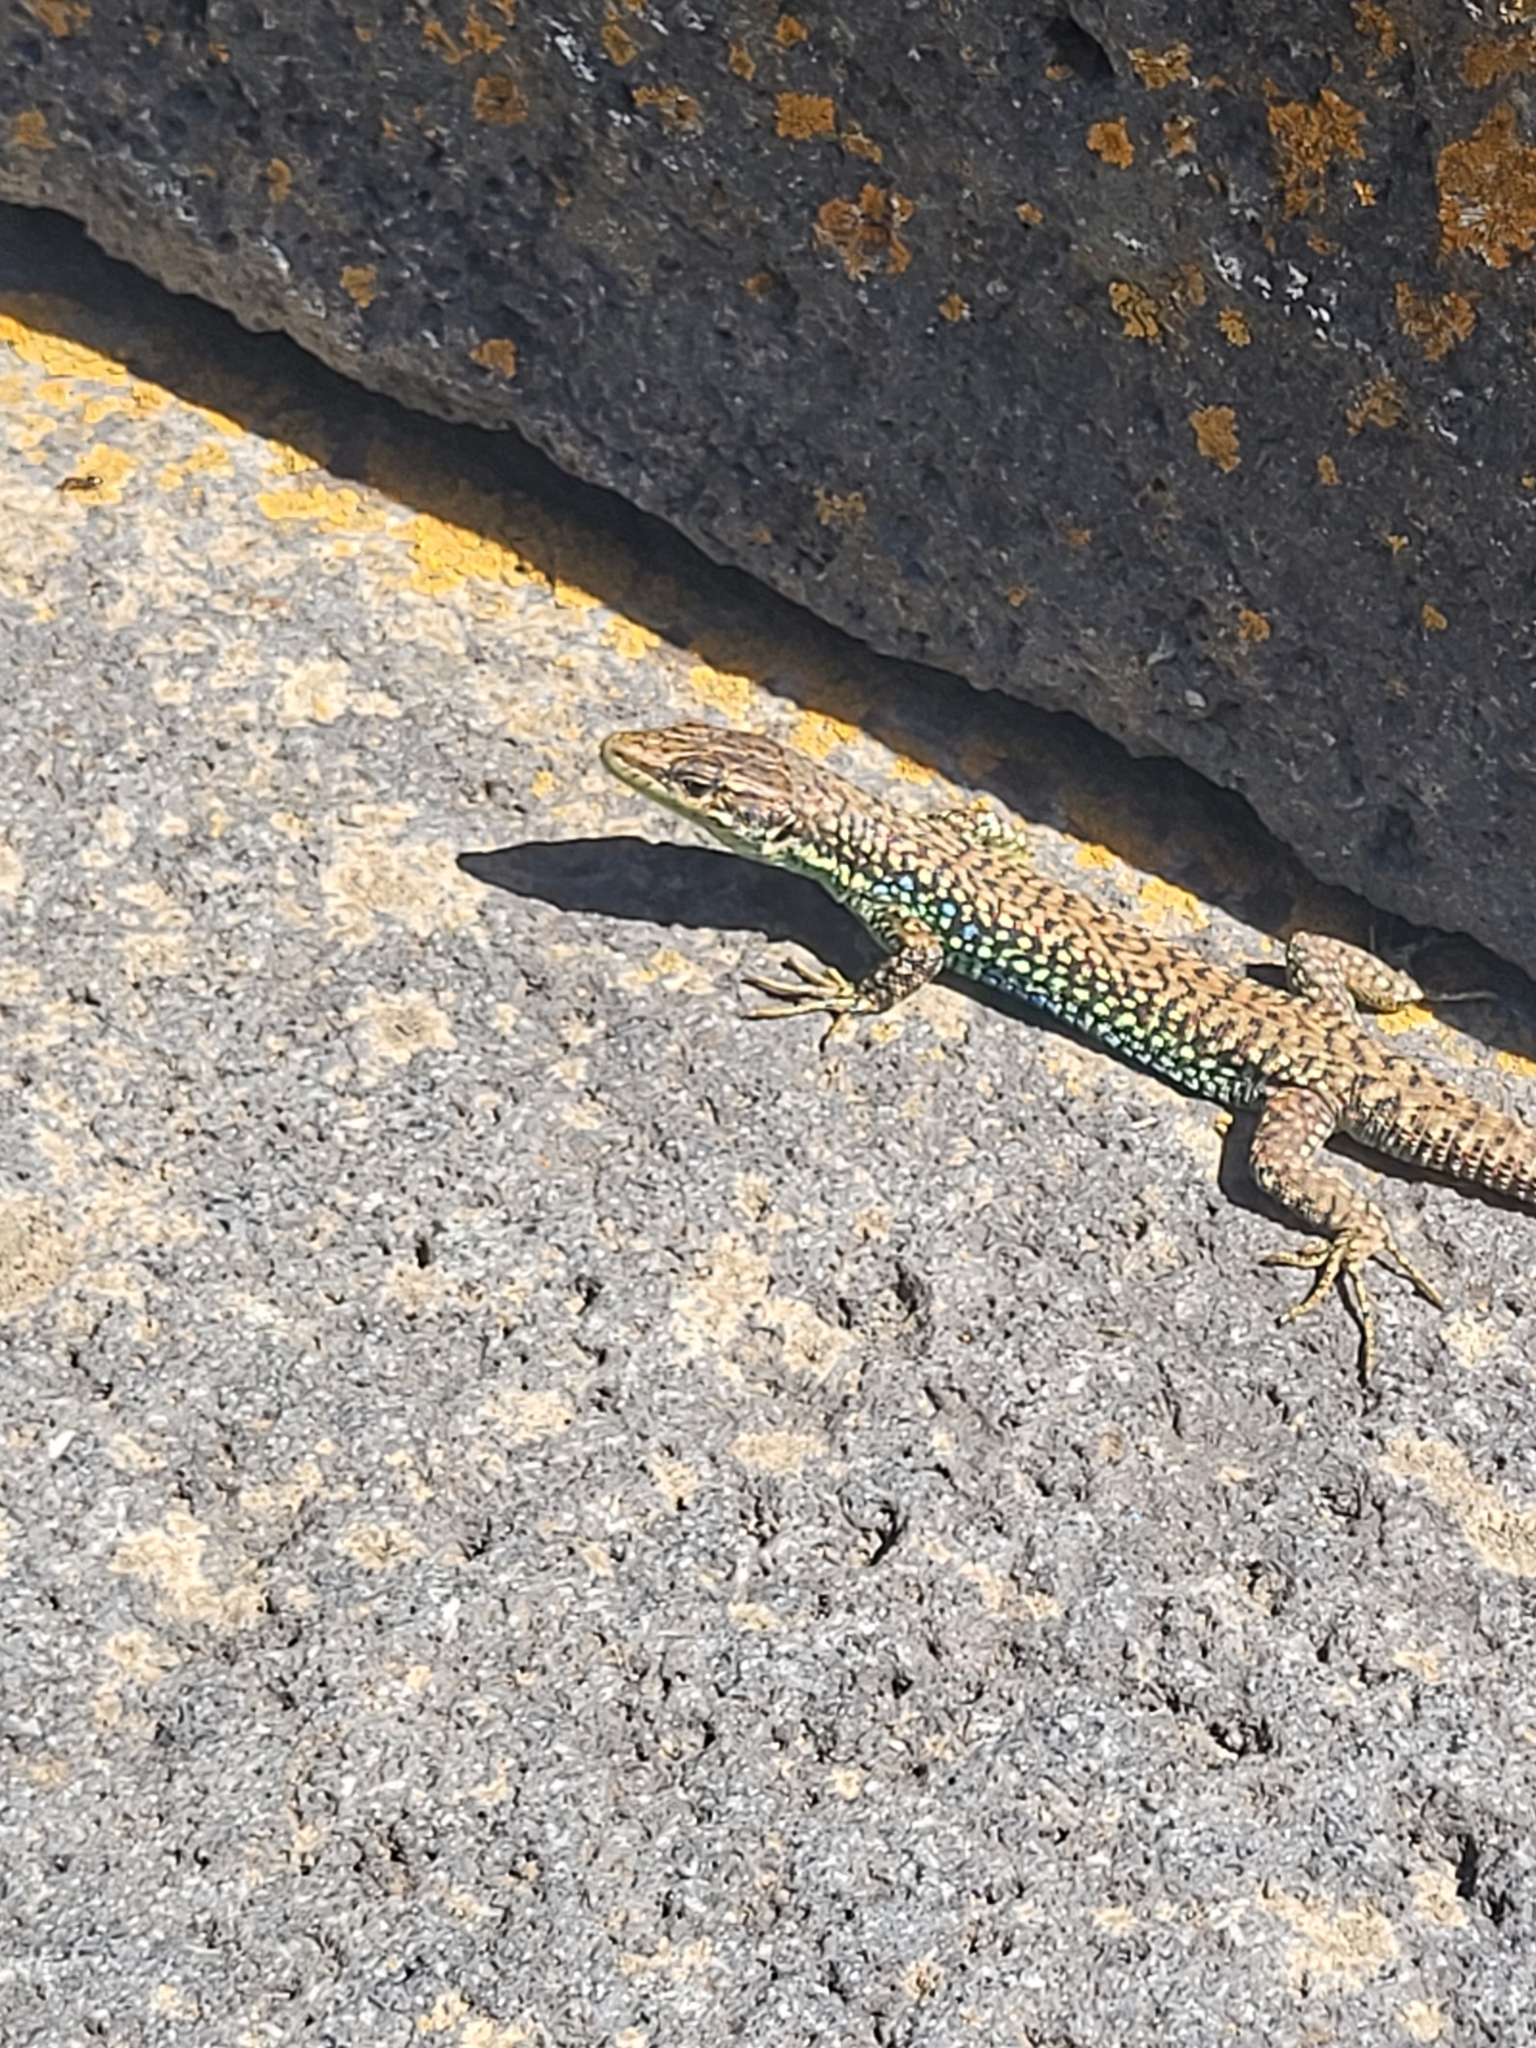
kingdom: Animalia
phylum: Chordata
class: Squamata
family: Lacertidae
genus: Darevskia
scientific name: Darevskia
